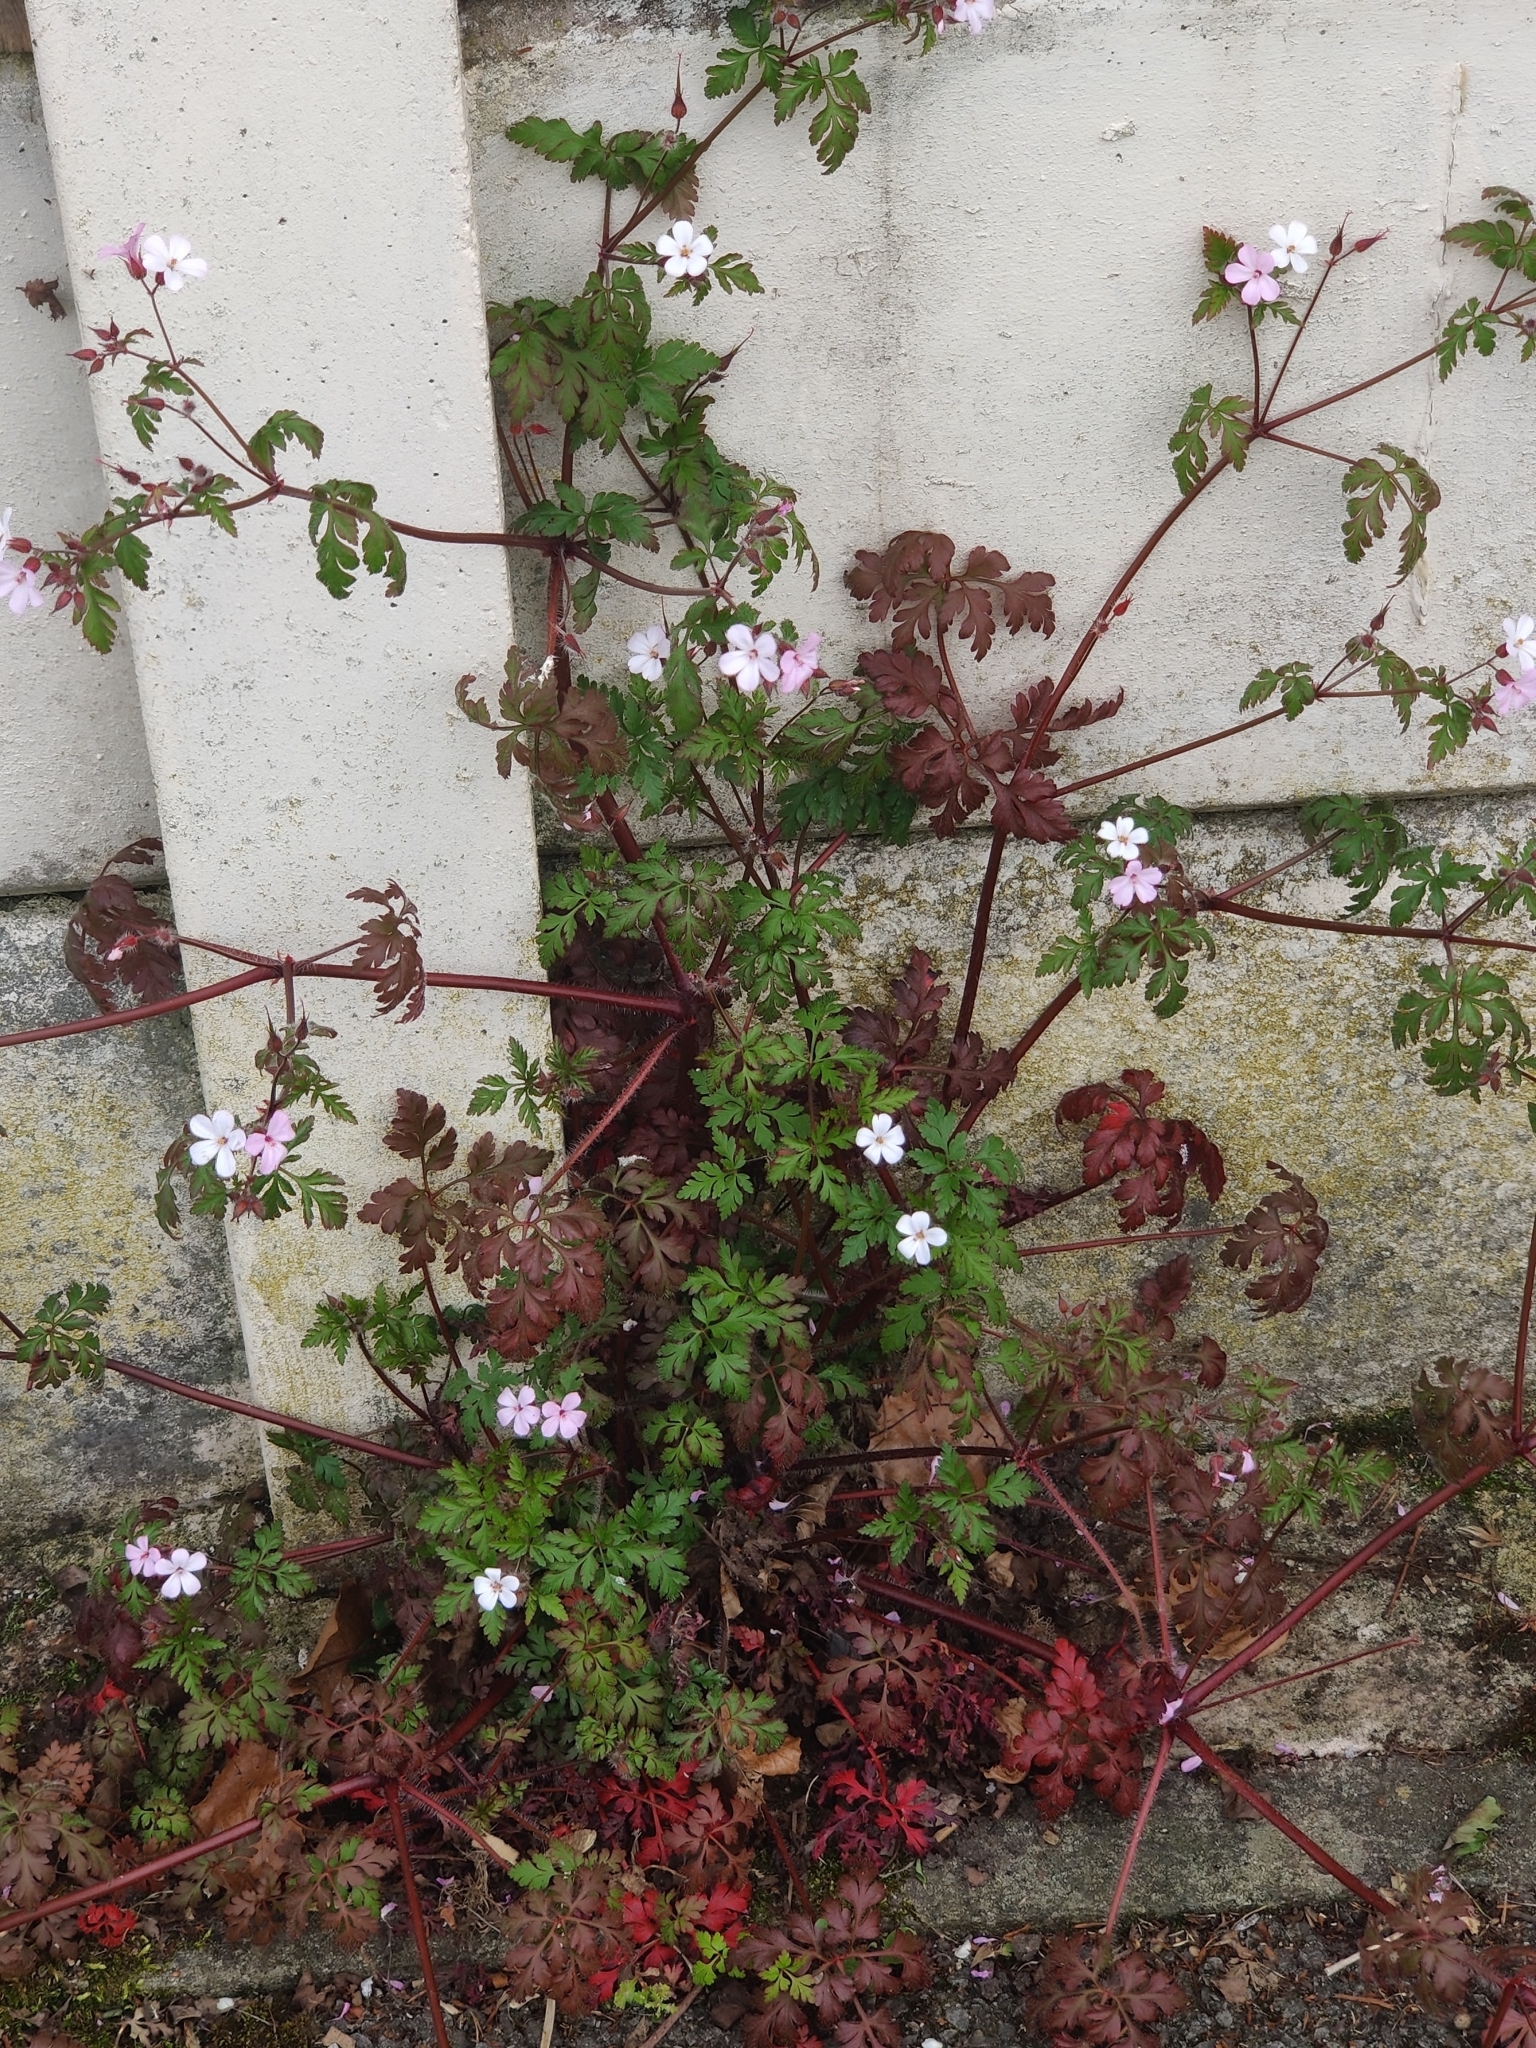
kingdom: Plantae
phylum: Tracheophyta
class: Magnoliopsida
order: Geraniales
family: Geraniaceae
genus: Geranium
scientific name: Geranium robertianum
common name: Herb-robert
